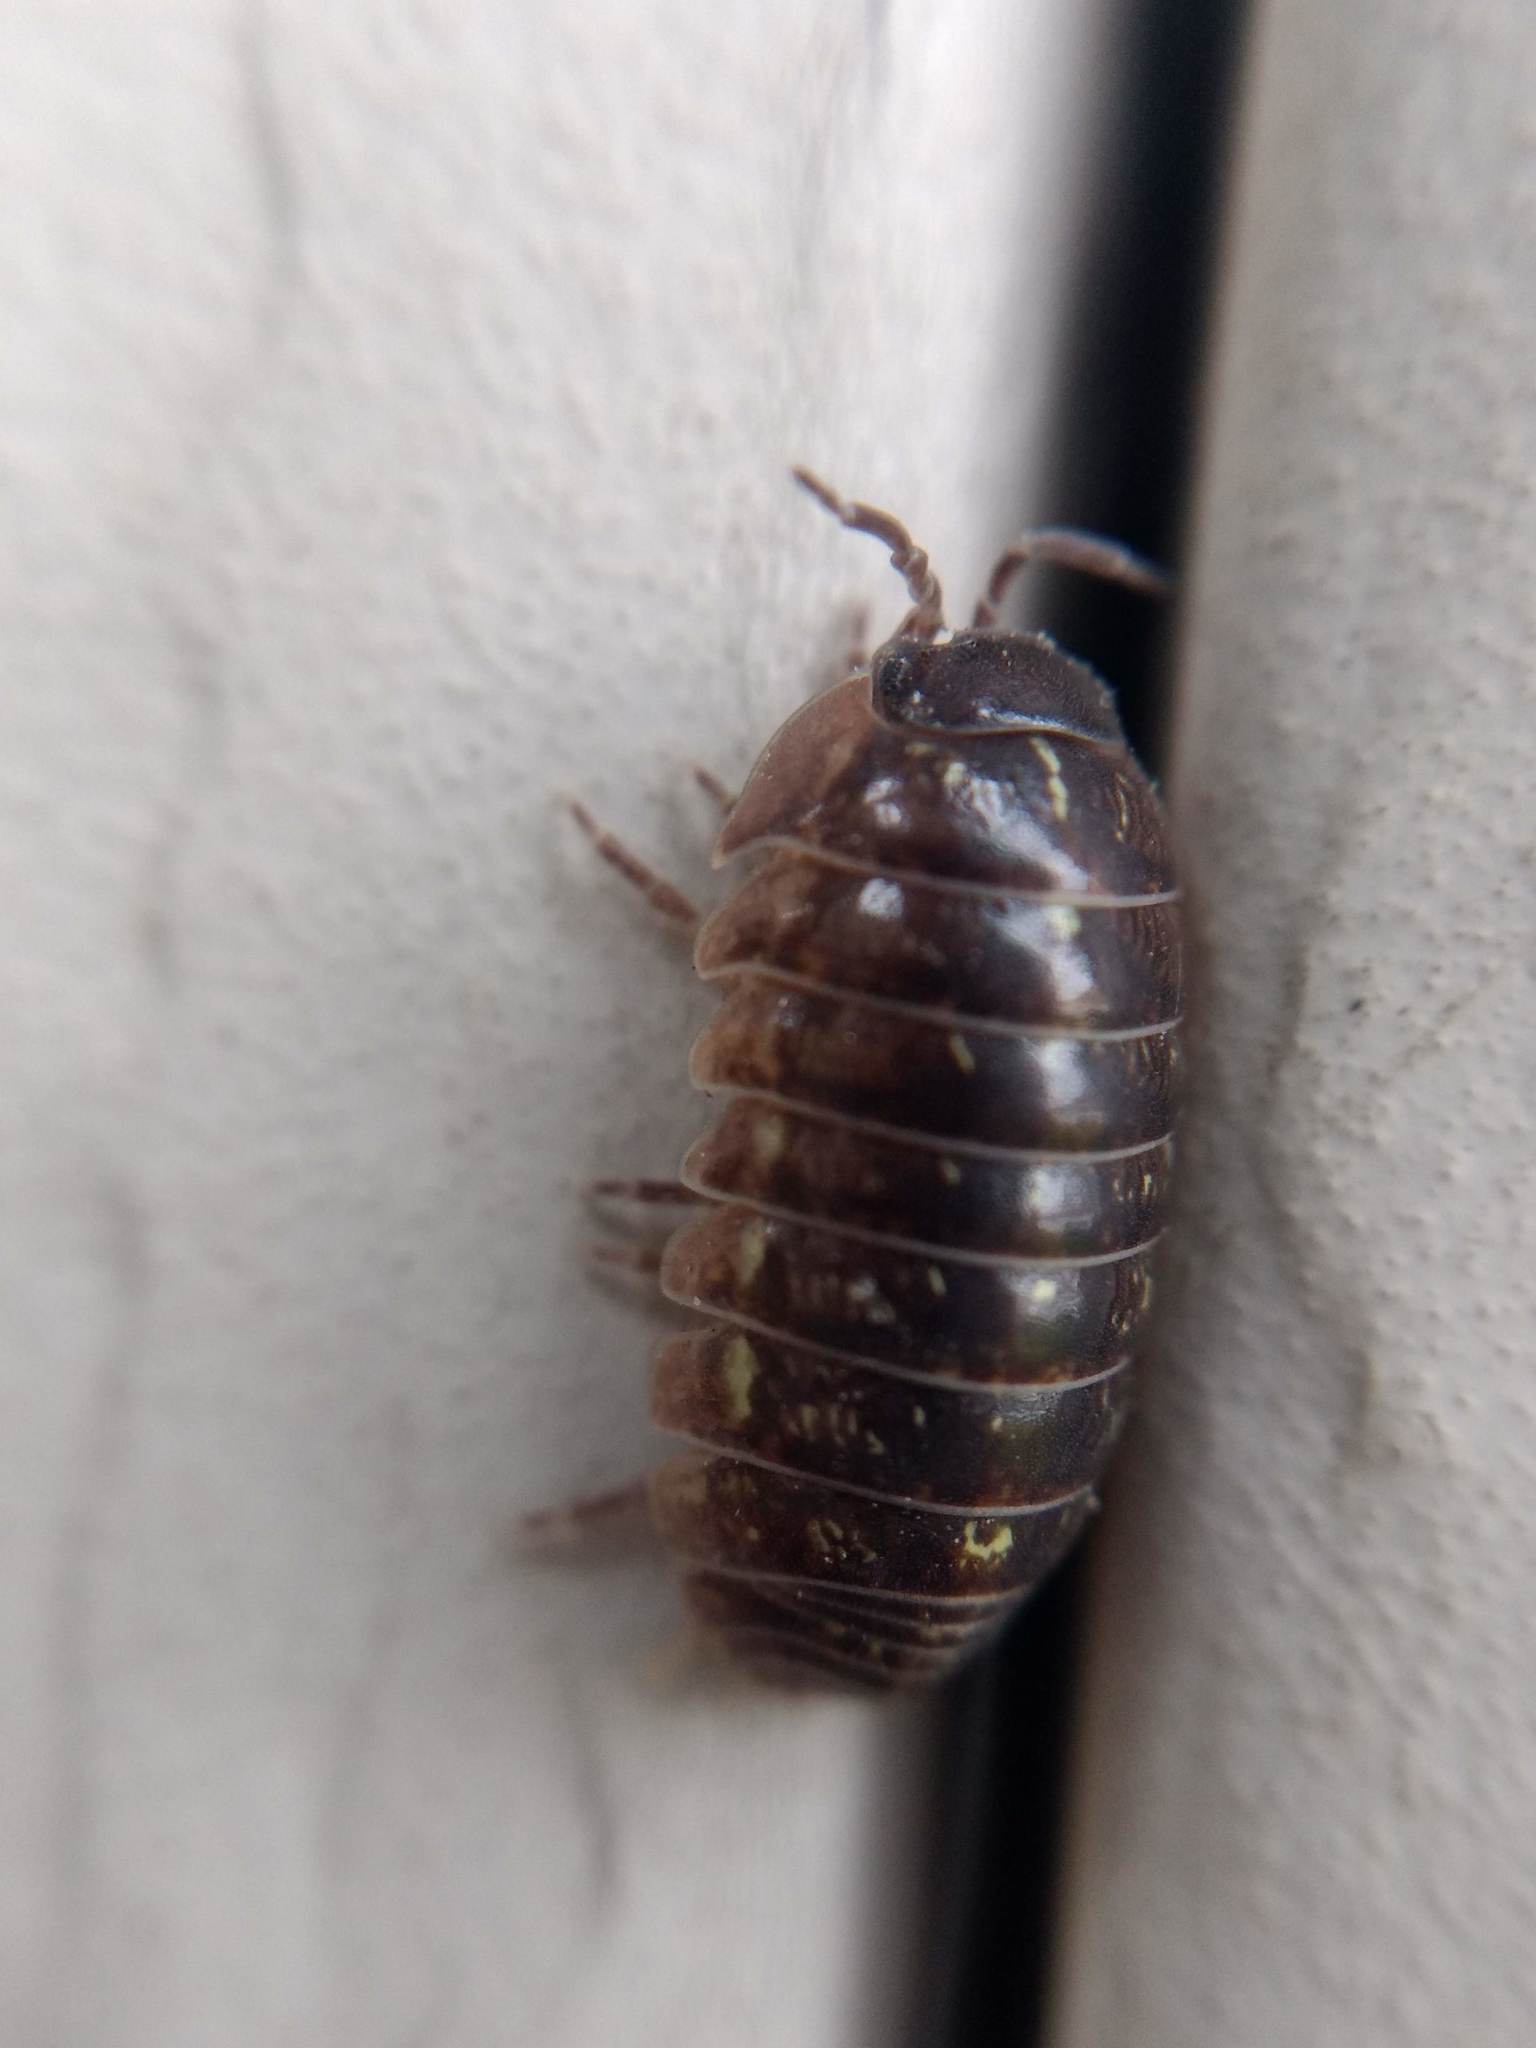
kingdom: Animalia
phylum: Arthropoda
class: Malacostraca
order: Isopoda
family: Armadillidiidae
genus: Armadillidium
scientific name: Armadillidium vulgare
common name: Common pill woodlouse
